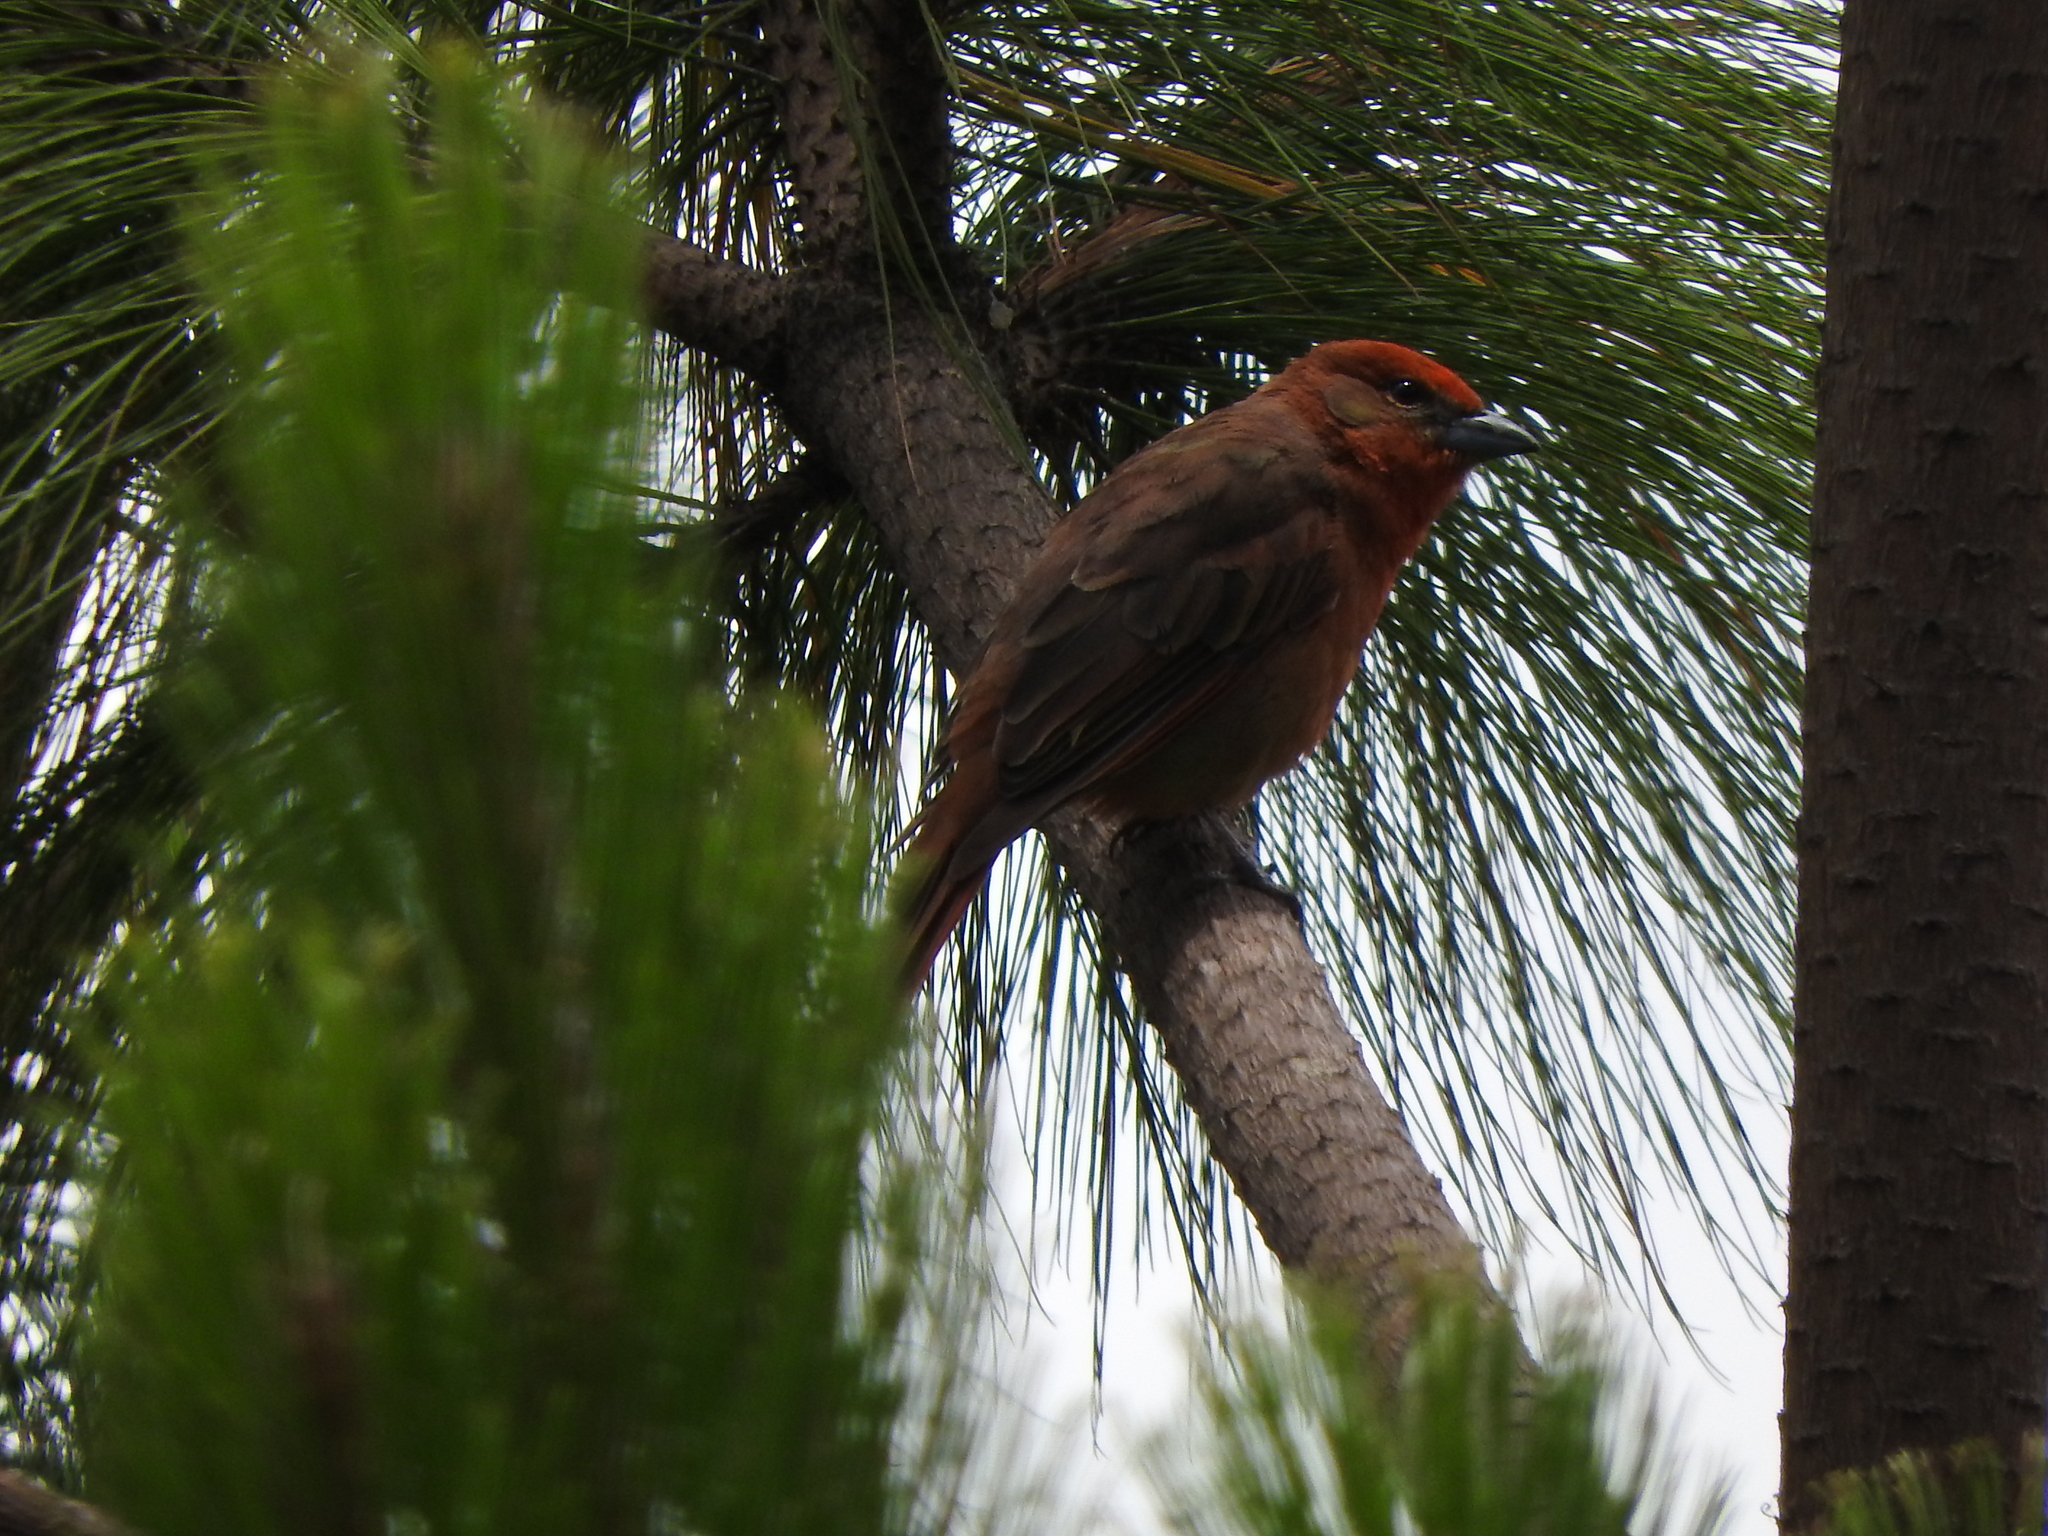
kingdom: Animalia
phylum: Chordata
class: Aves
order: Passeriformes
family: Cardinalidae
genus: Piranga
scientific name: Piranga flava
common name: Red tanager
